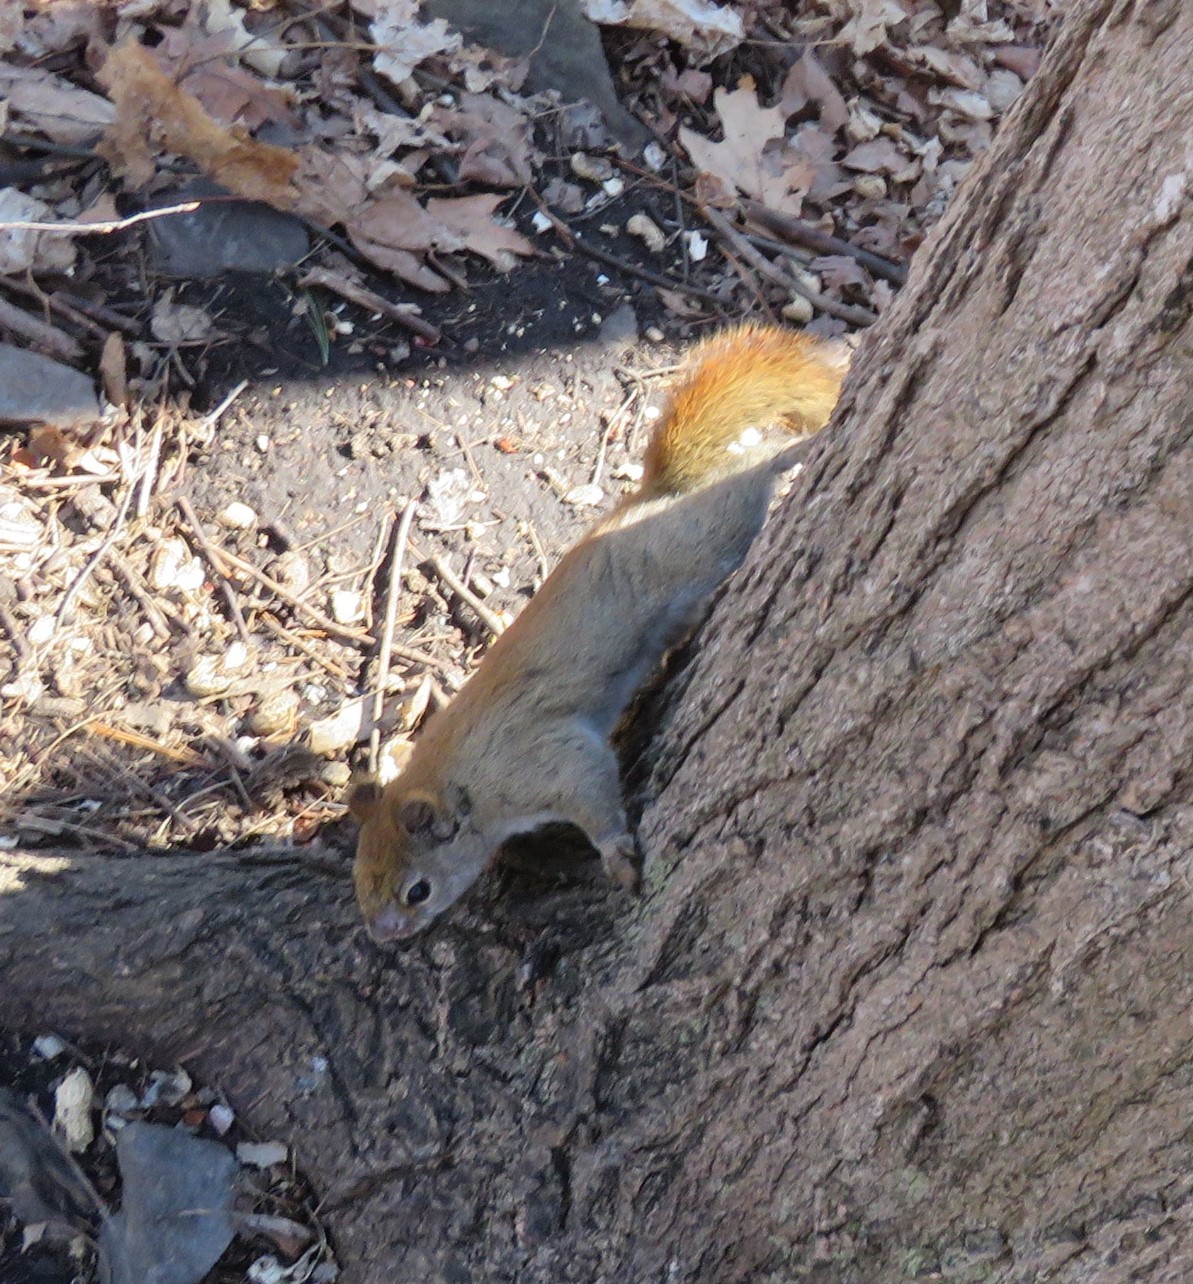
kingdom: Animalia
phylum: Chordata
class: Mammalia
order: Rodentia
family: Sciuridae
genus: Tamiasciurus
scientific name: Tamiasciurus hudsonicus
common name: Red squirrel
